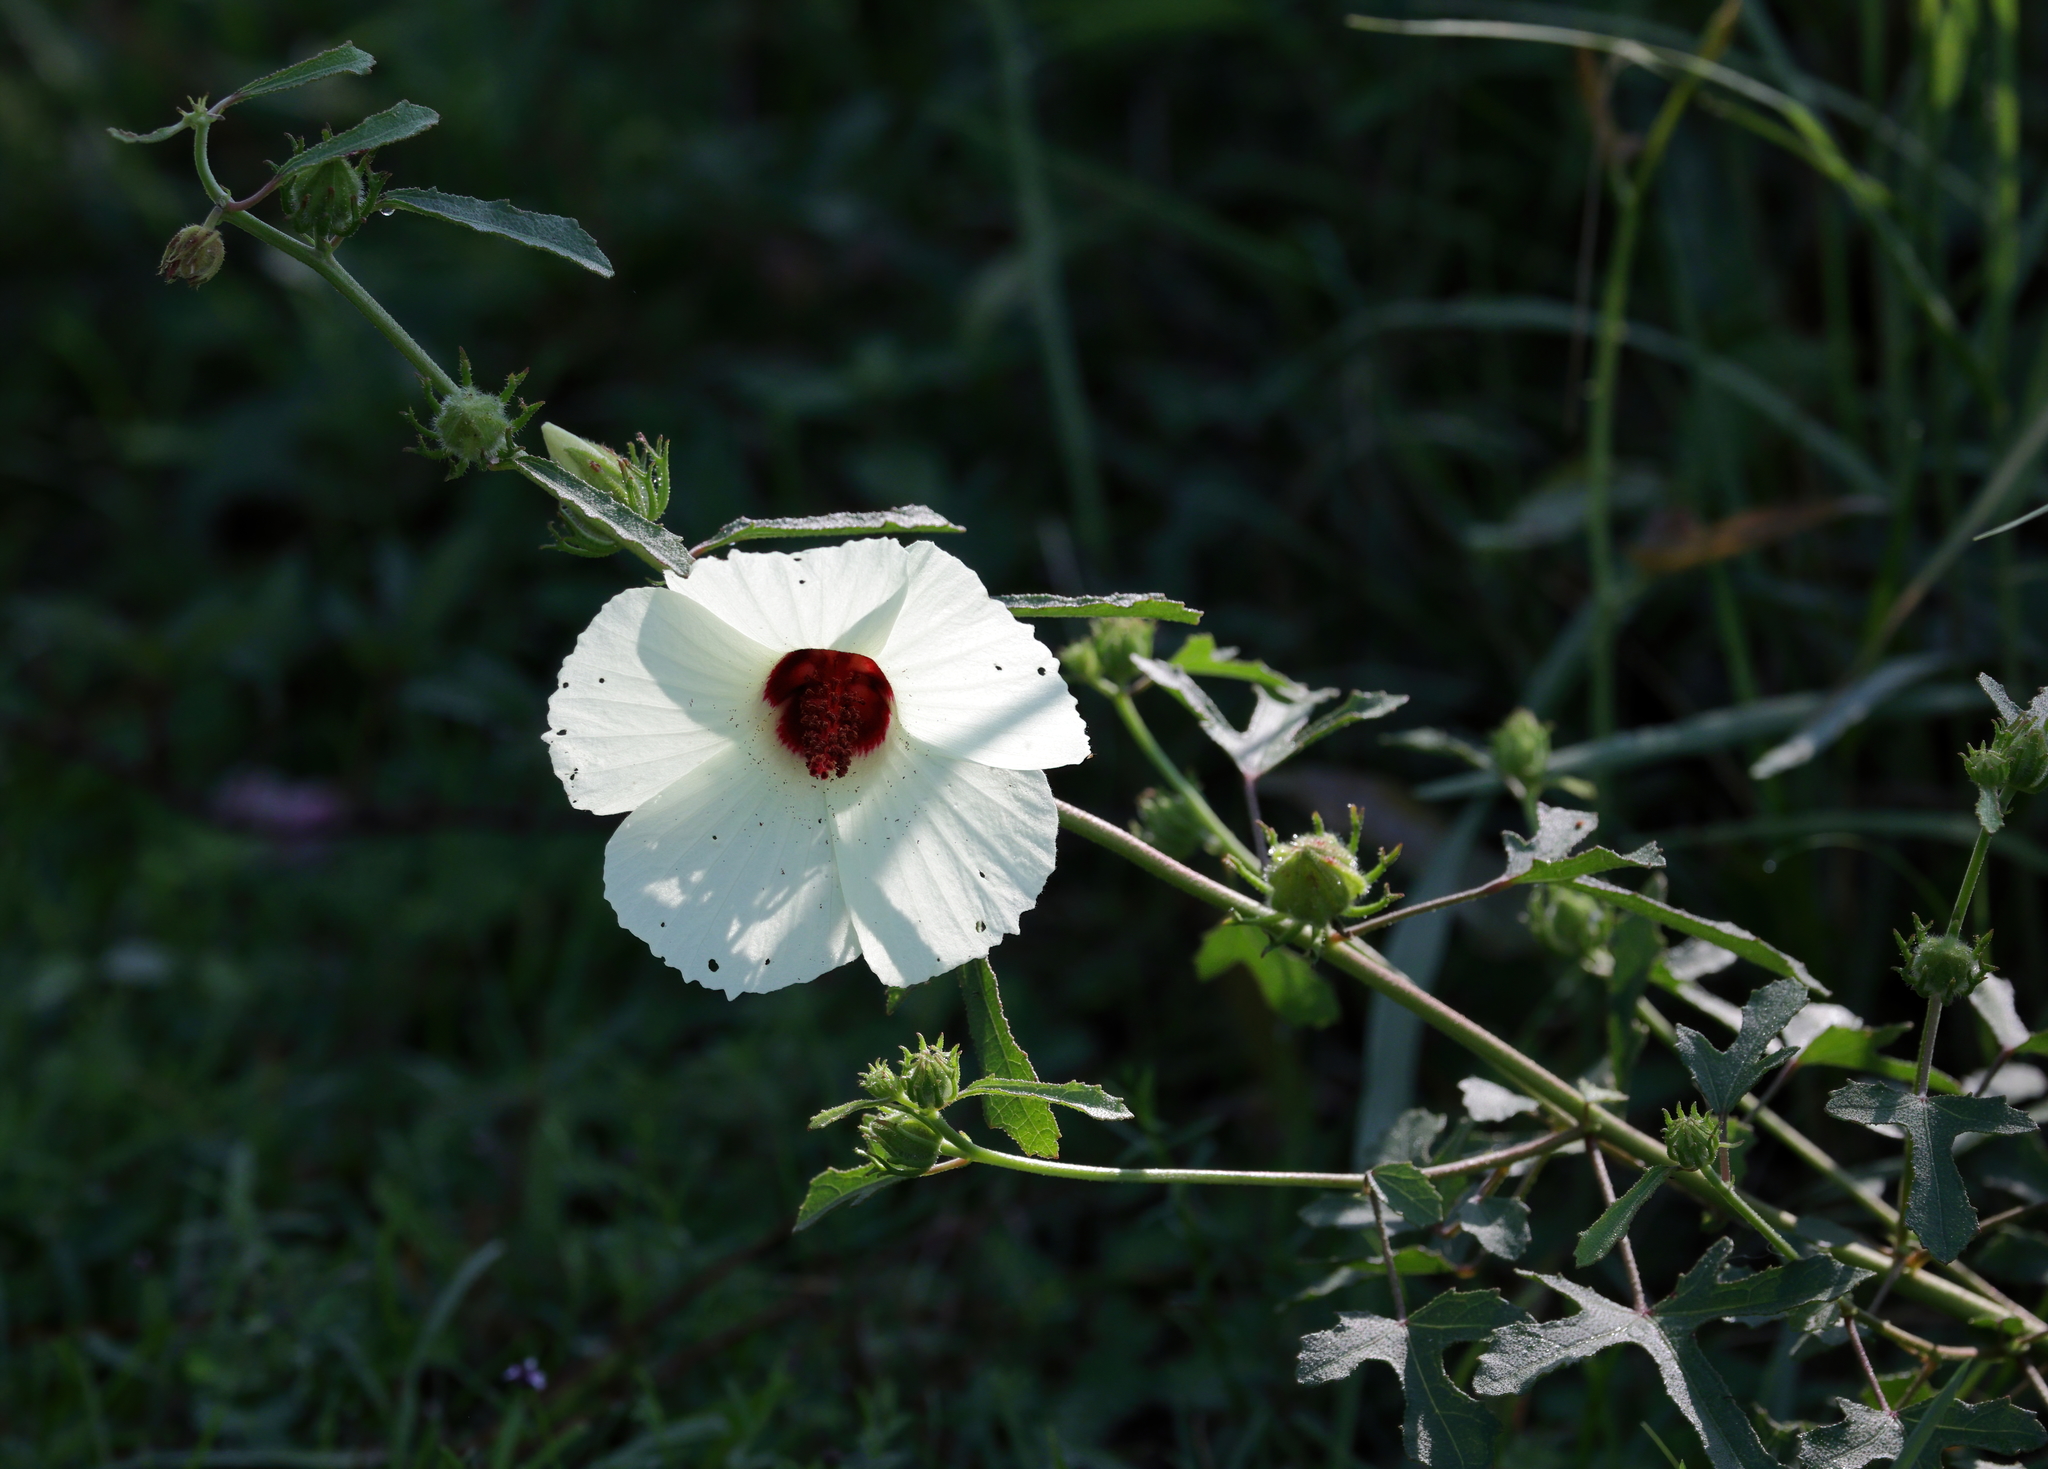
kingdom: Plantae
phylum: Tracheophyta
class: Magnoliopsida
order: Malvales
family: Malvaceae
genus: Hibiscus
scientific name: Hibiscus aculeatus
